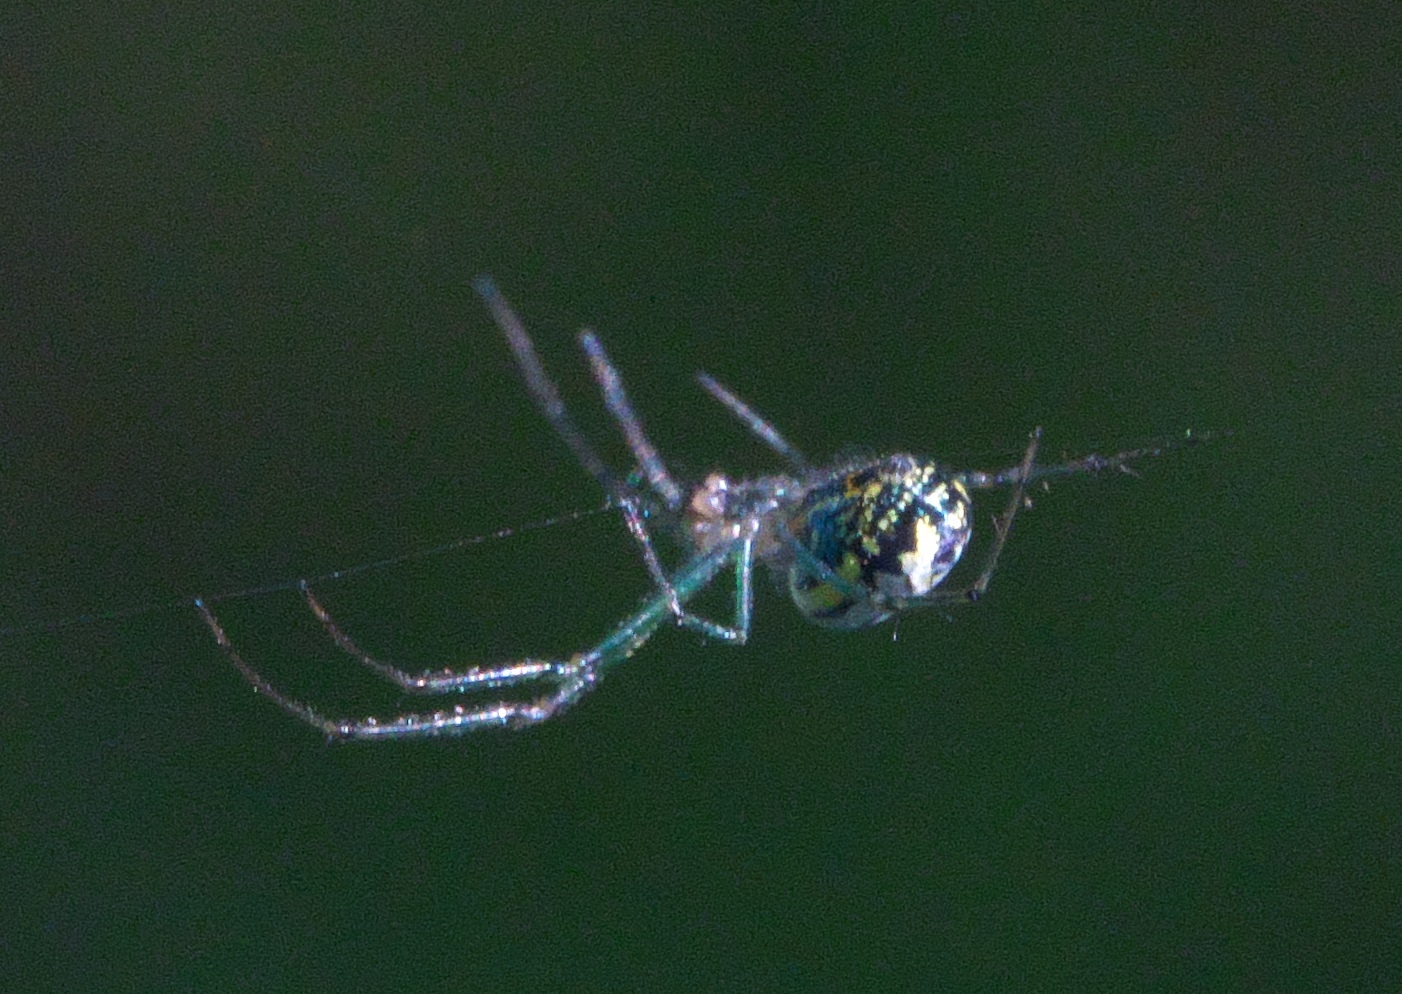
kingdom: Animalia
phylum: Arthropoda
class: Arachnida
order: Araneae
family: Tetragnathidae
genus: Leucauge
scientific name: Leucauge venusta
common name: Longjawed orb weavers
